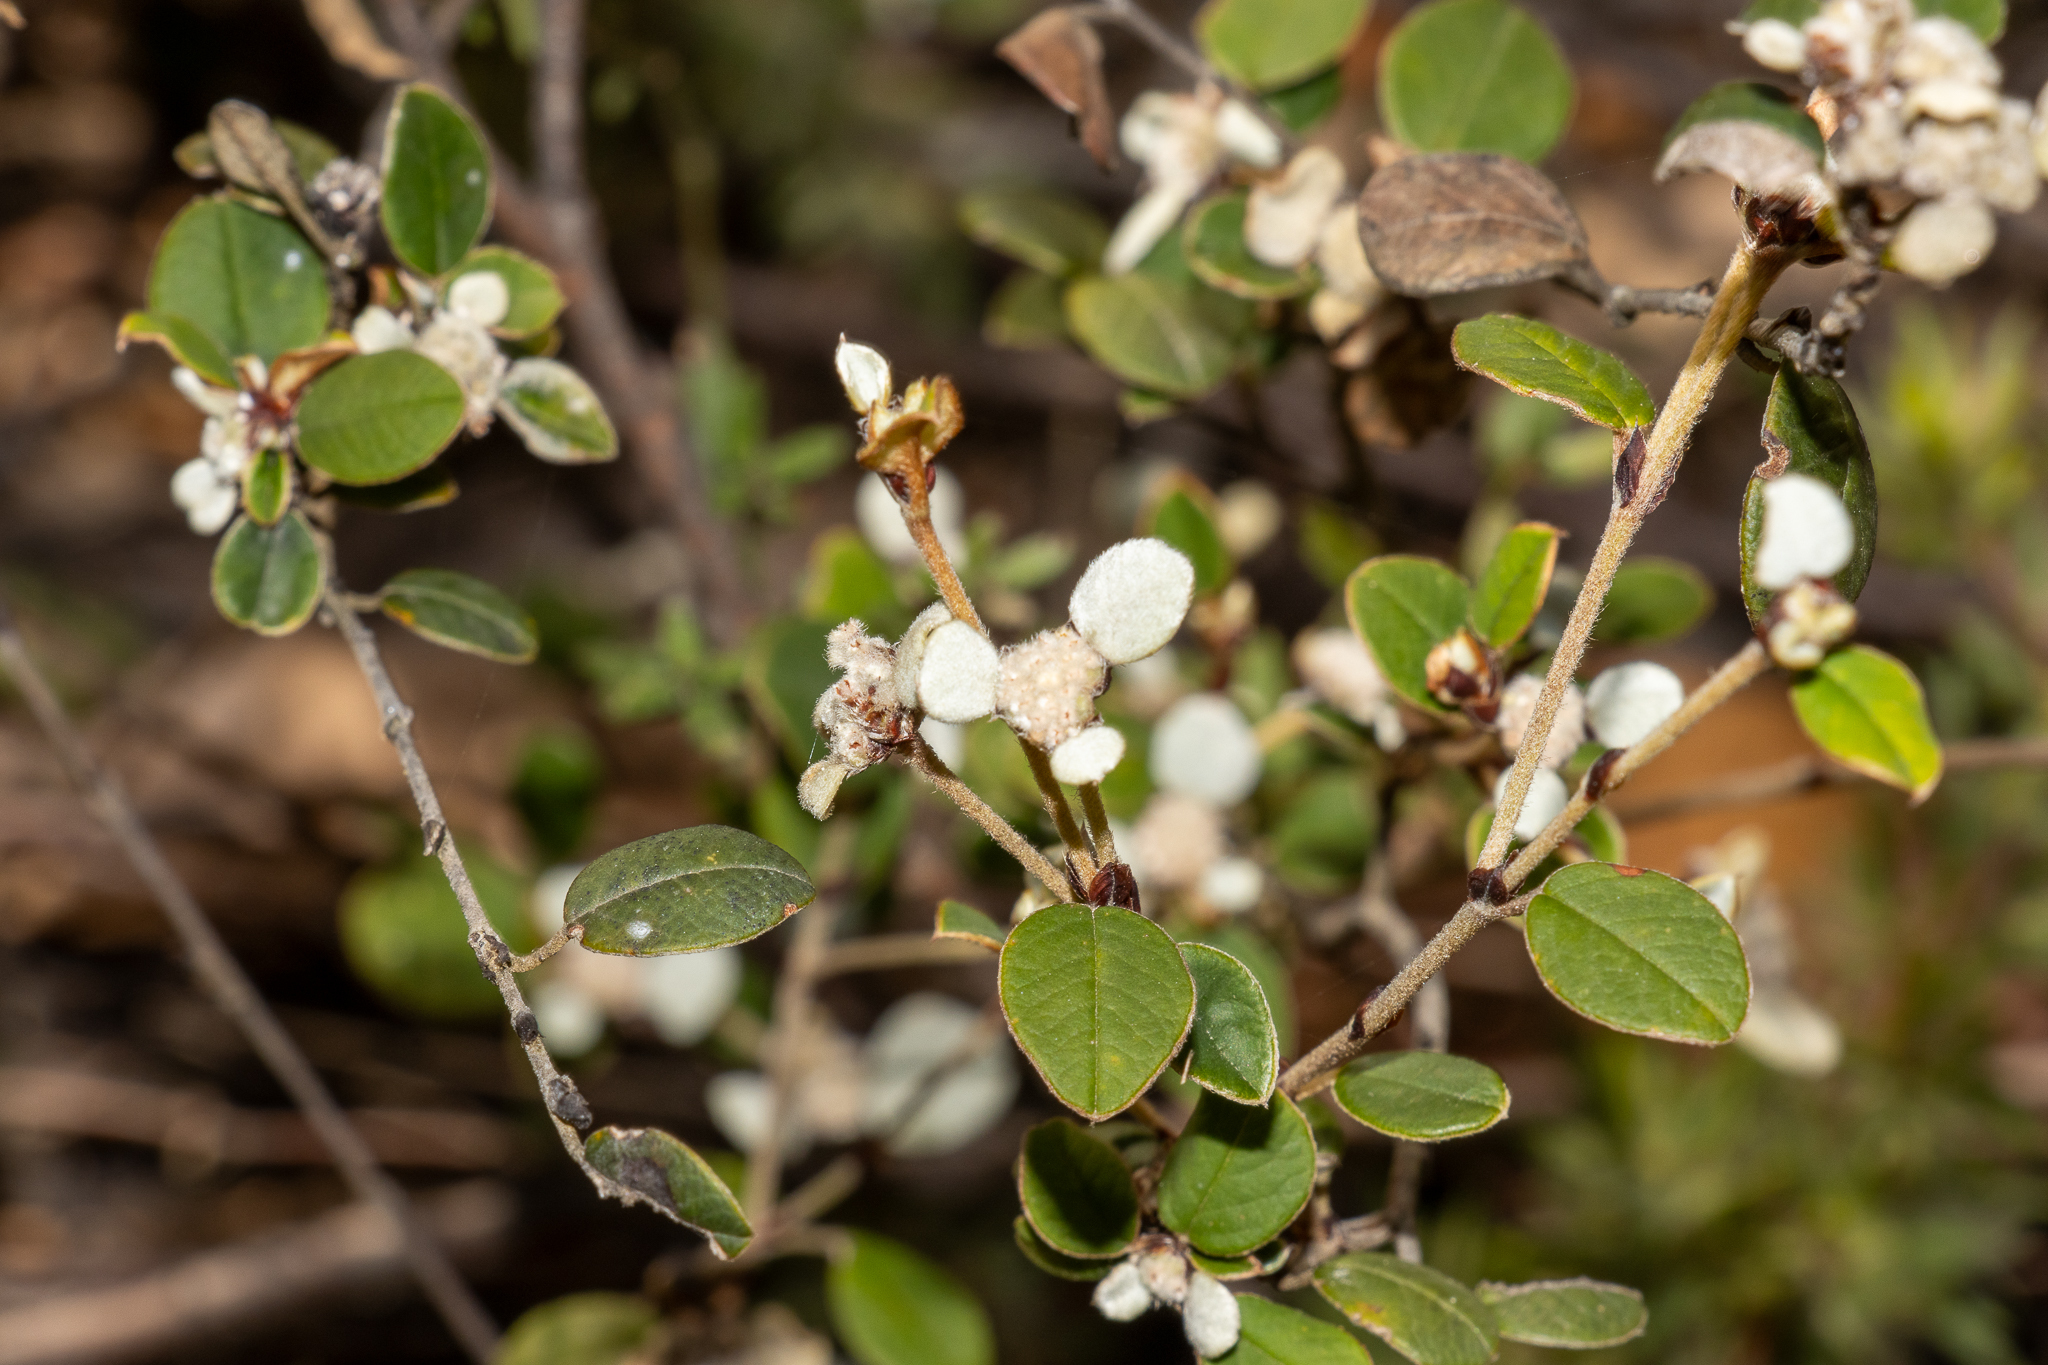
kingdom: Plantae
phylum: Tracheophyta
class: Magnoliopsida
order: Rosales
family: Rhamnaceae
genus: Spyridium
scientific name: Spyridium thymifolium
